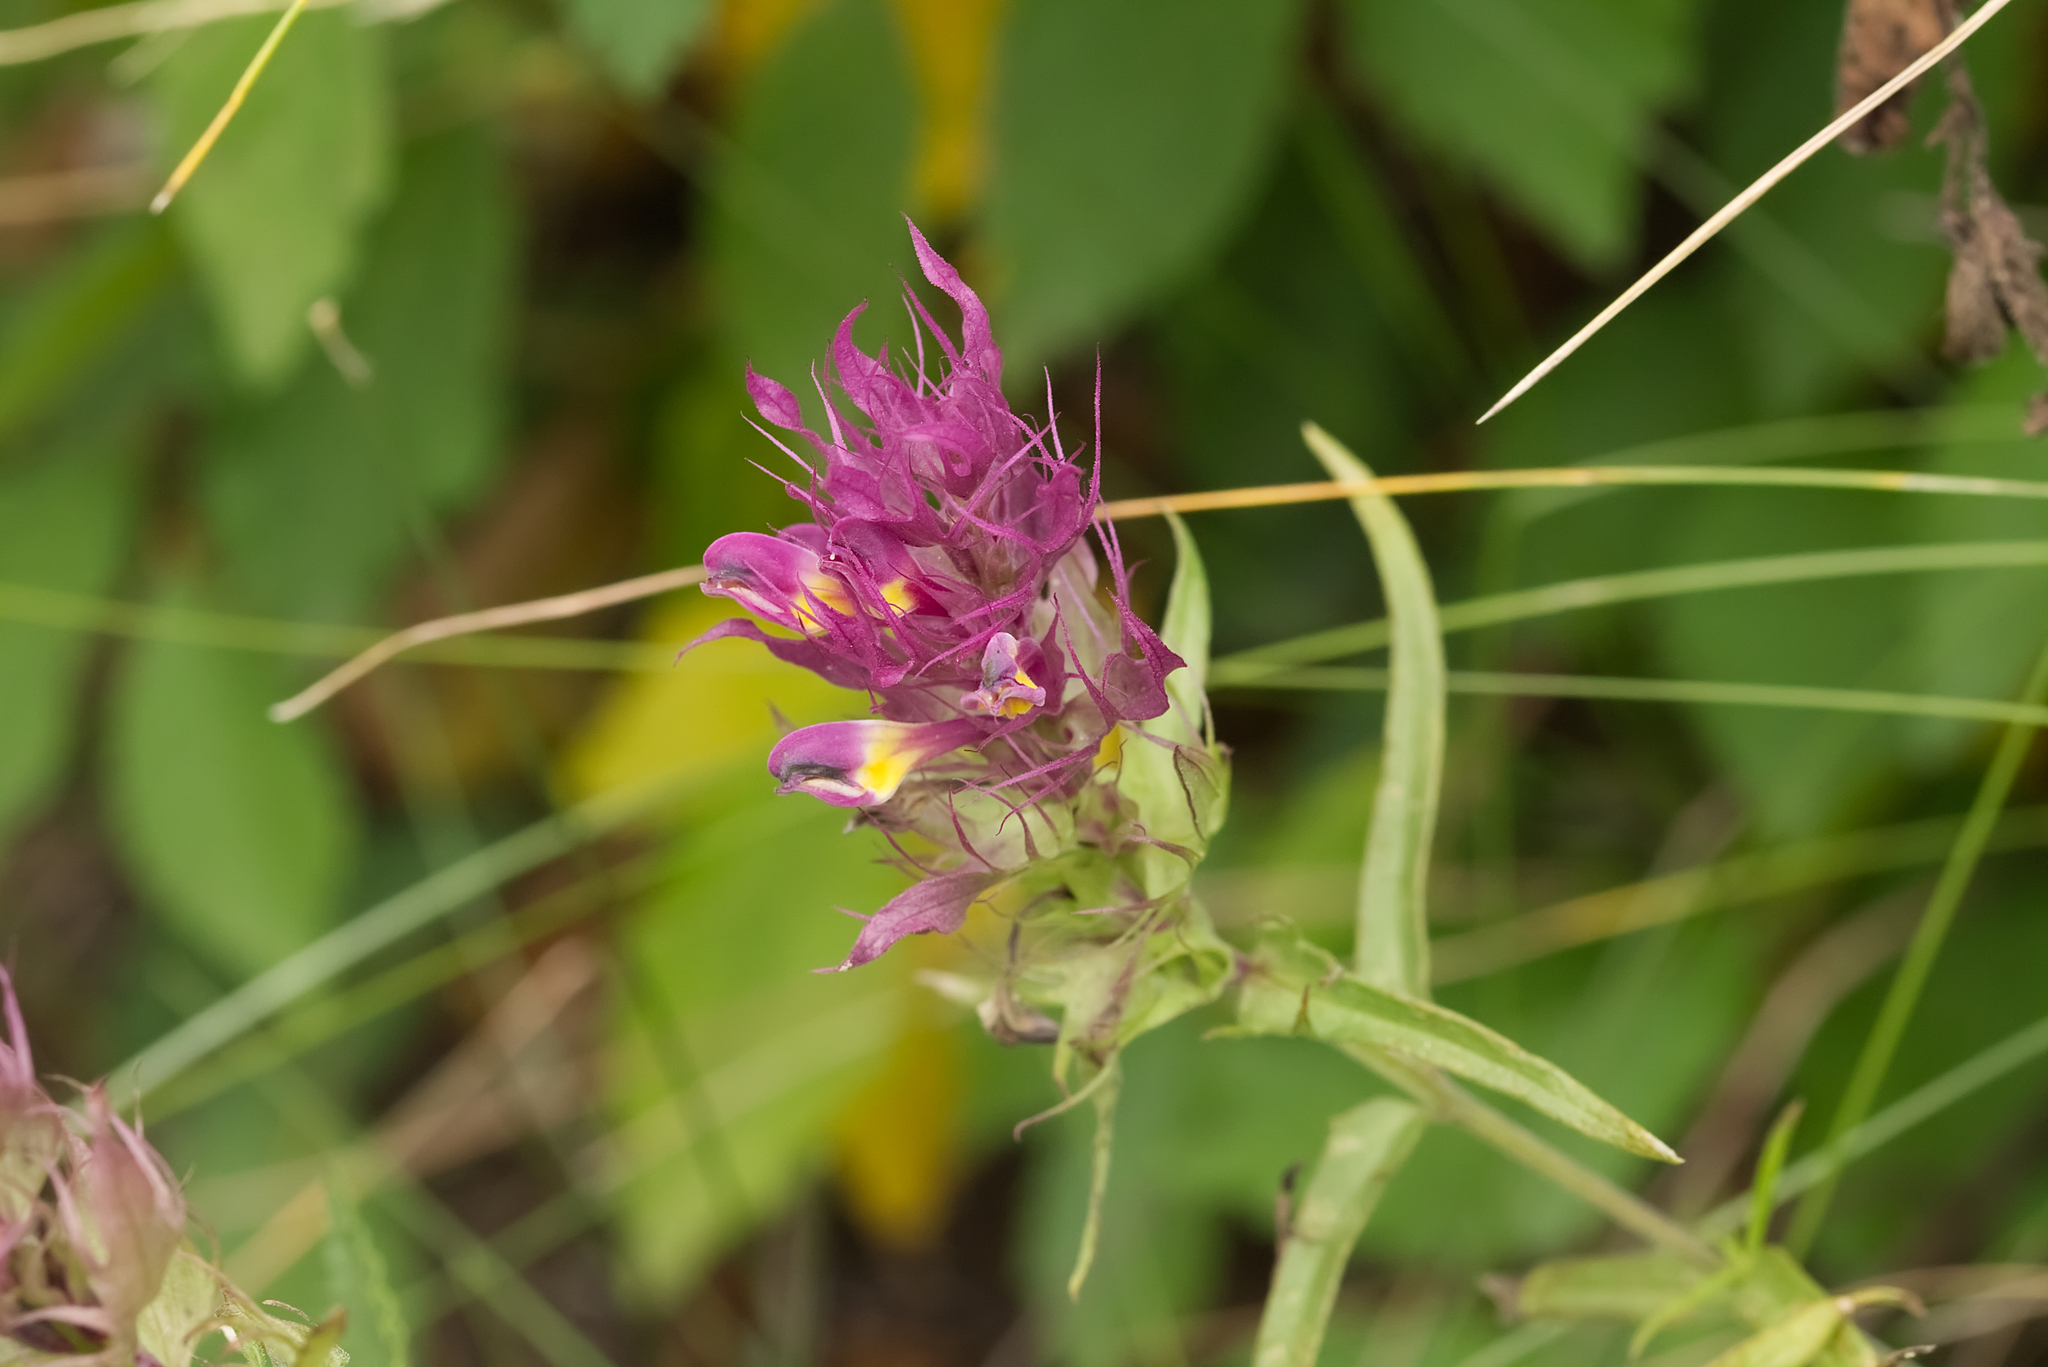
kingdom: Plantae
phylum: Tracheophyta
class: Magnoliopsida
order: Lamiales
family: Orobanchaceae
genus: Melampyrum
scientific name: Melampyrum arvense
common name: Field cow-wheat
